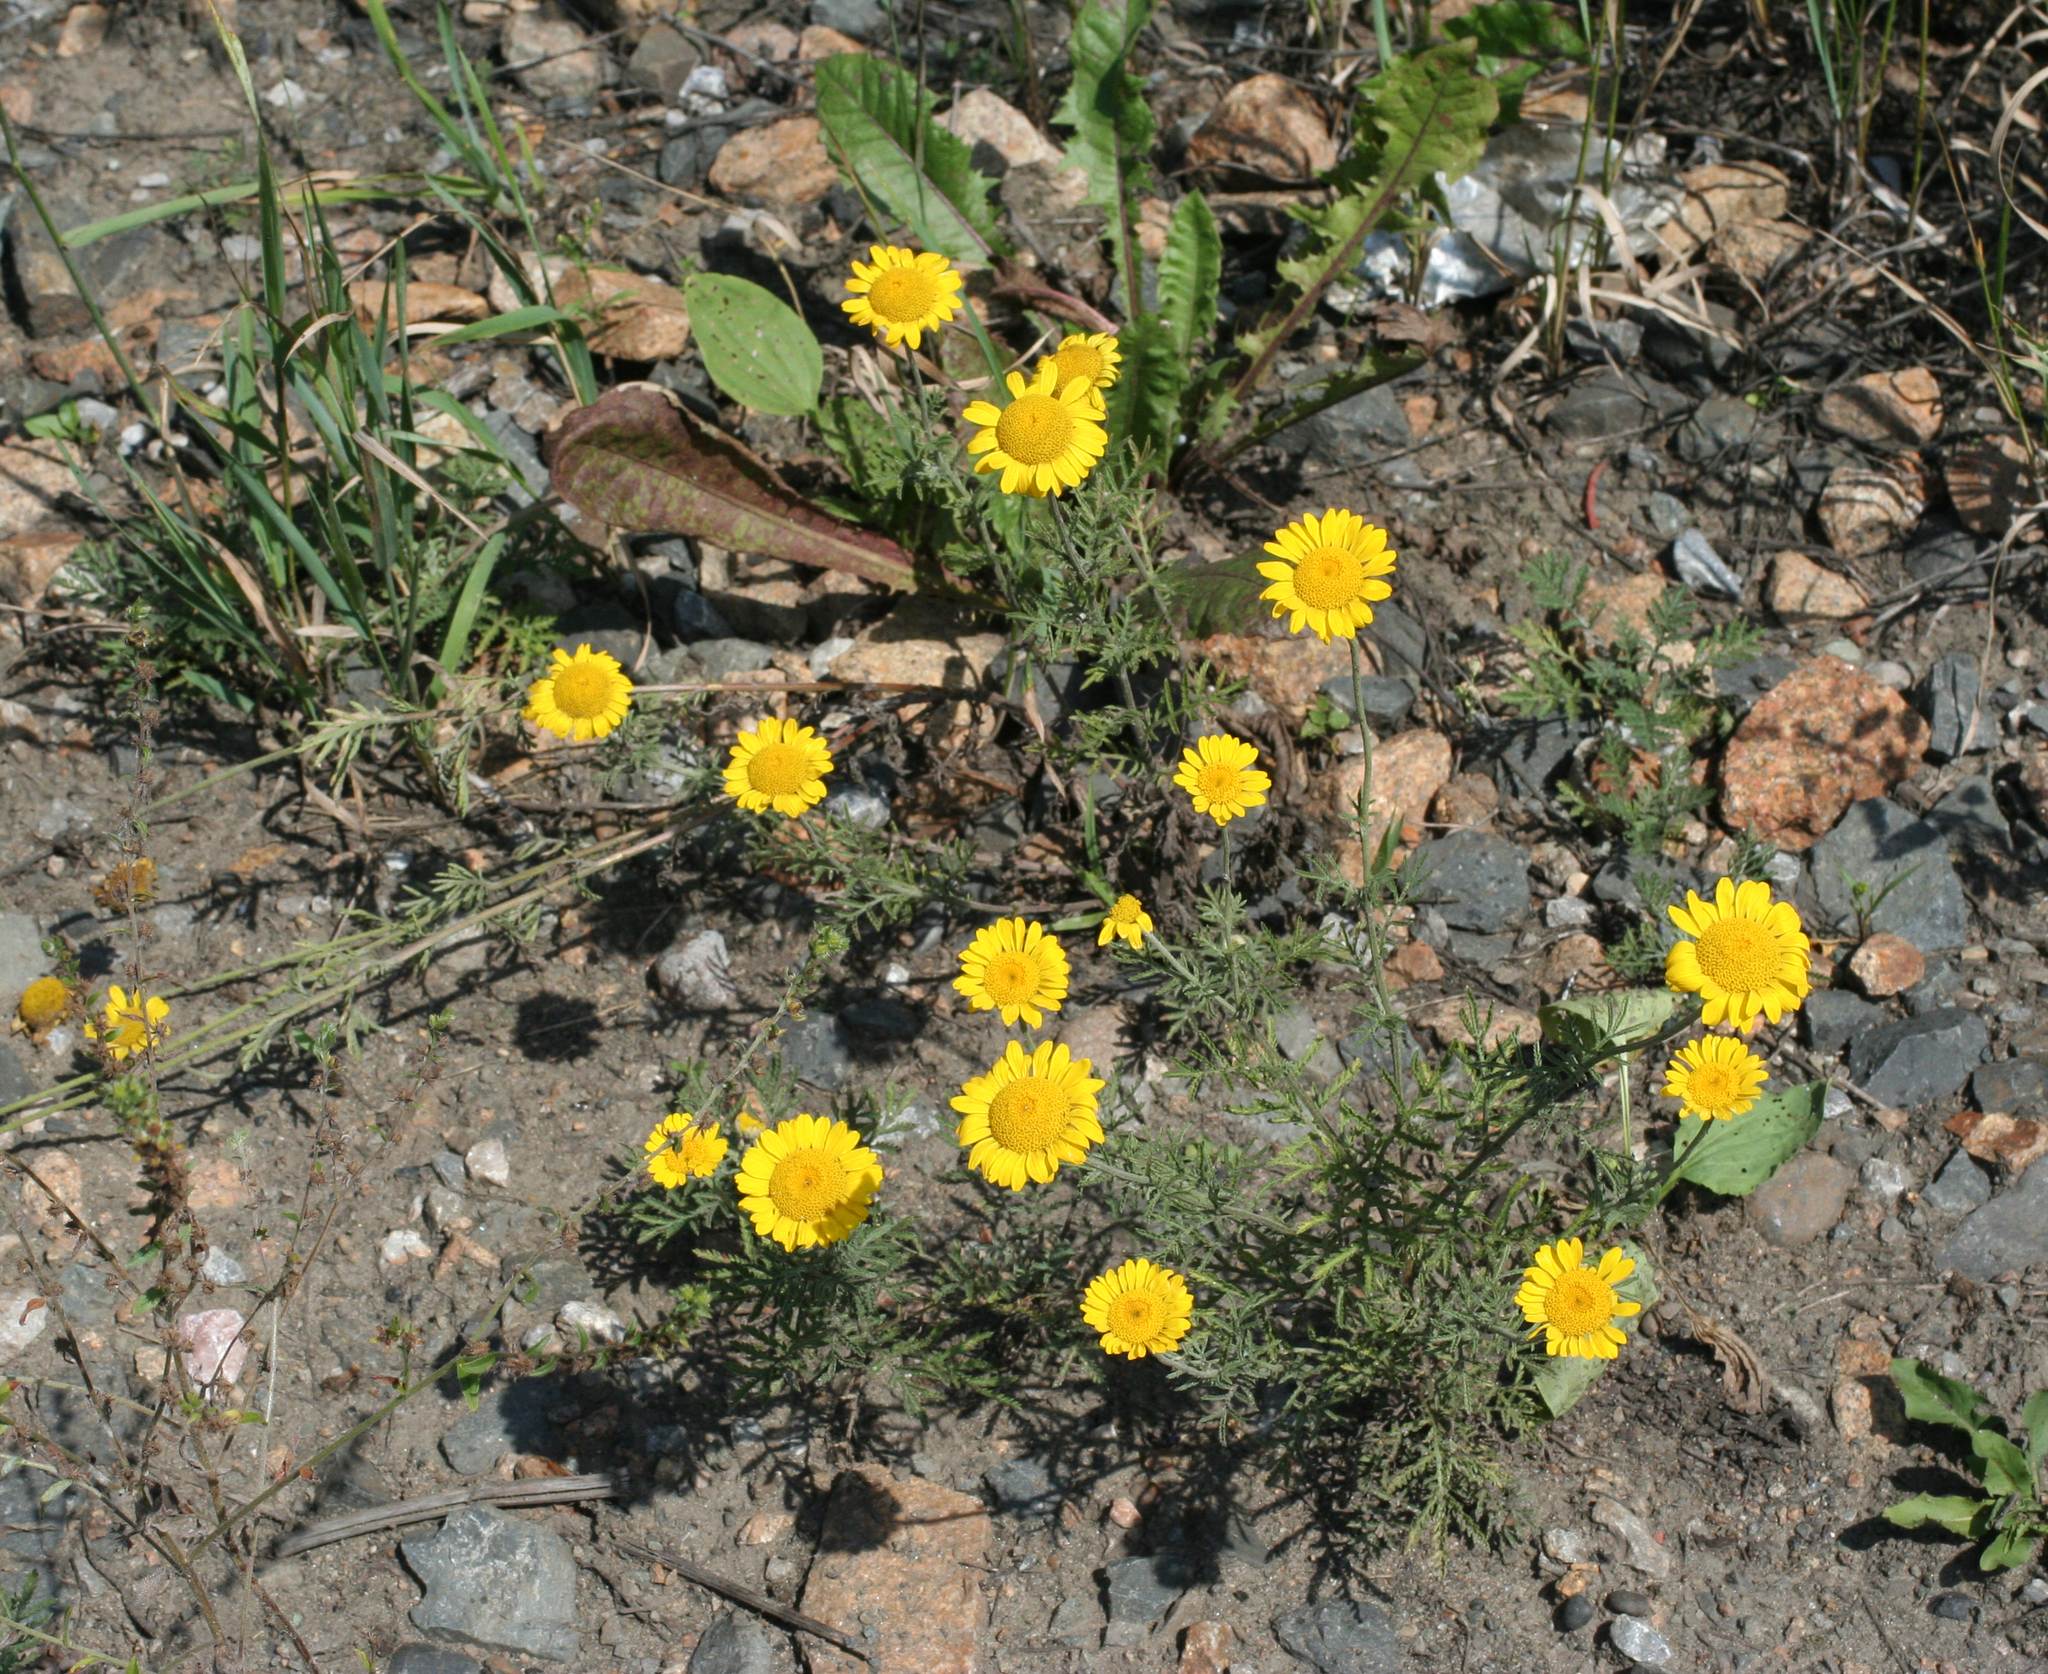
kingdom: Plantae
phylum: Tracheophyta
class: Magnoliopsida
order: Asterales
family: Asteraceae
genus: Cota
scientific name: Cota tinctoria
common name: Golden chamomile
